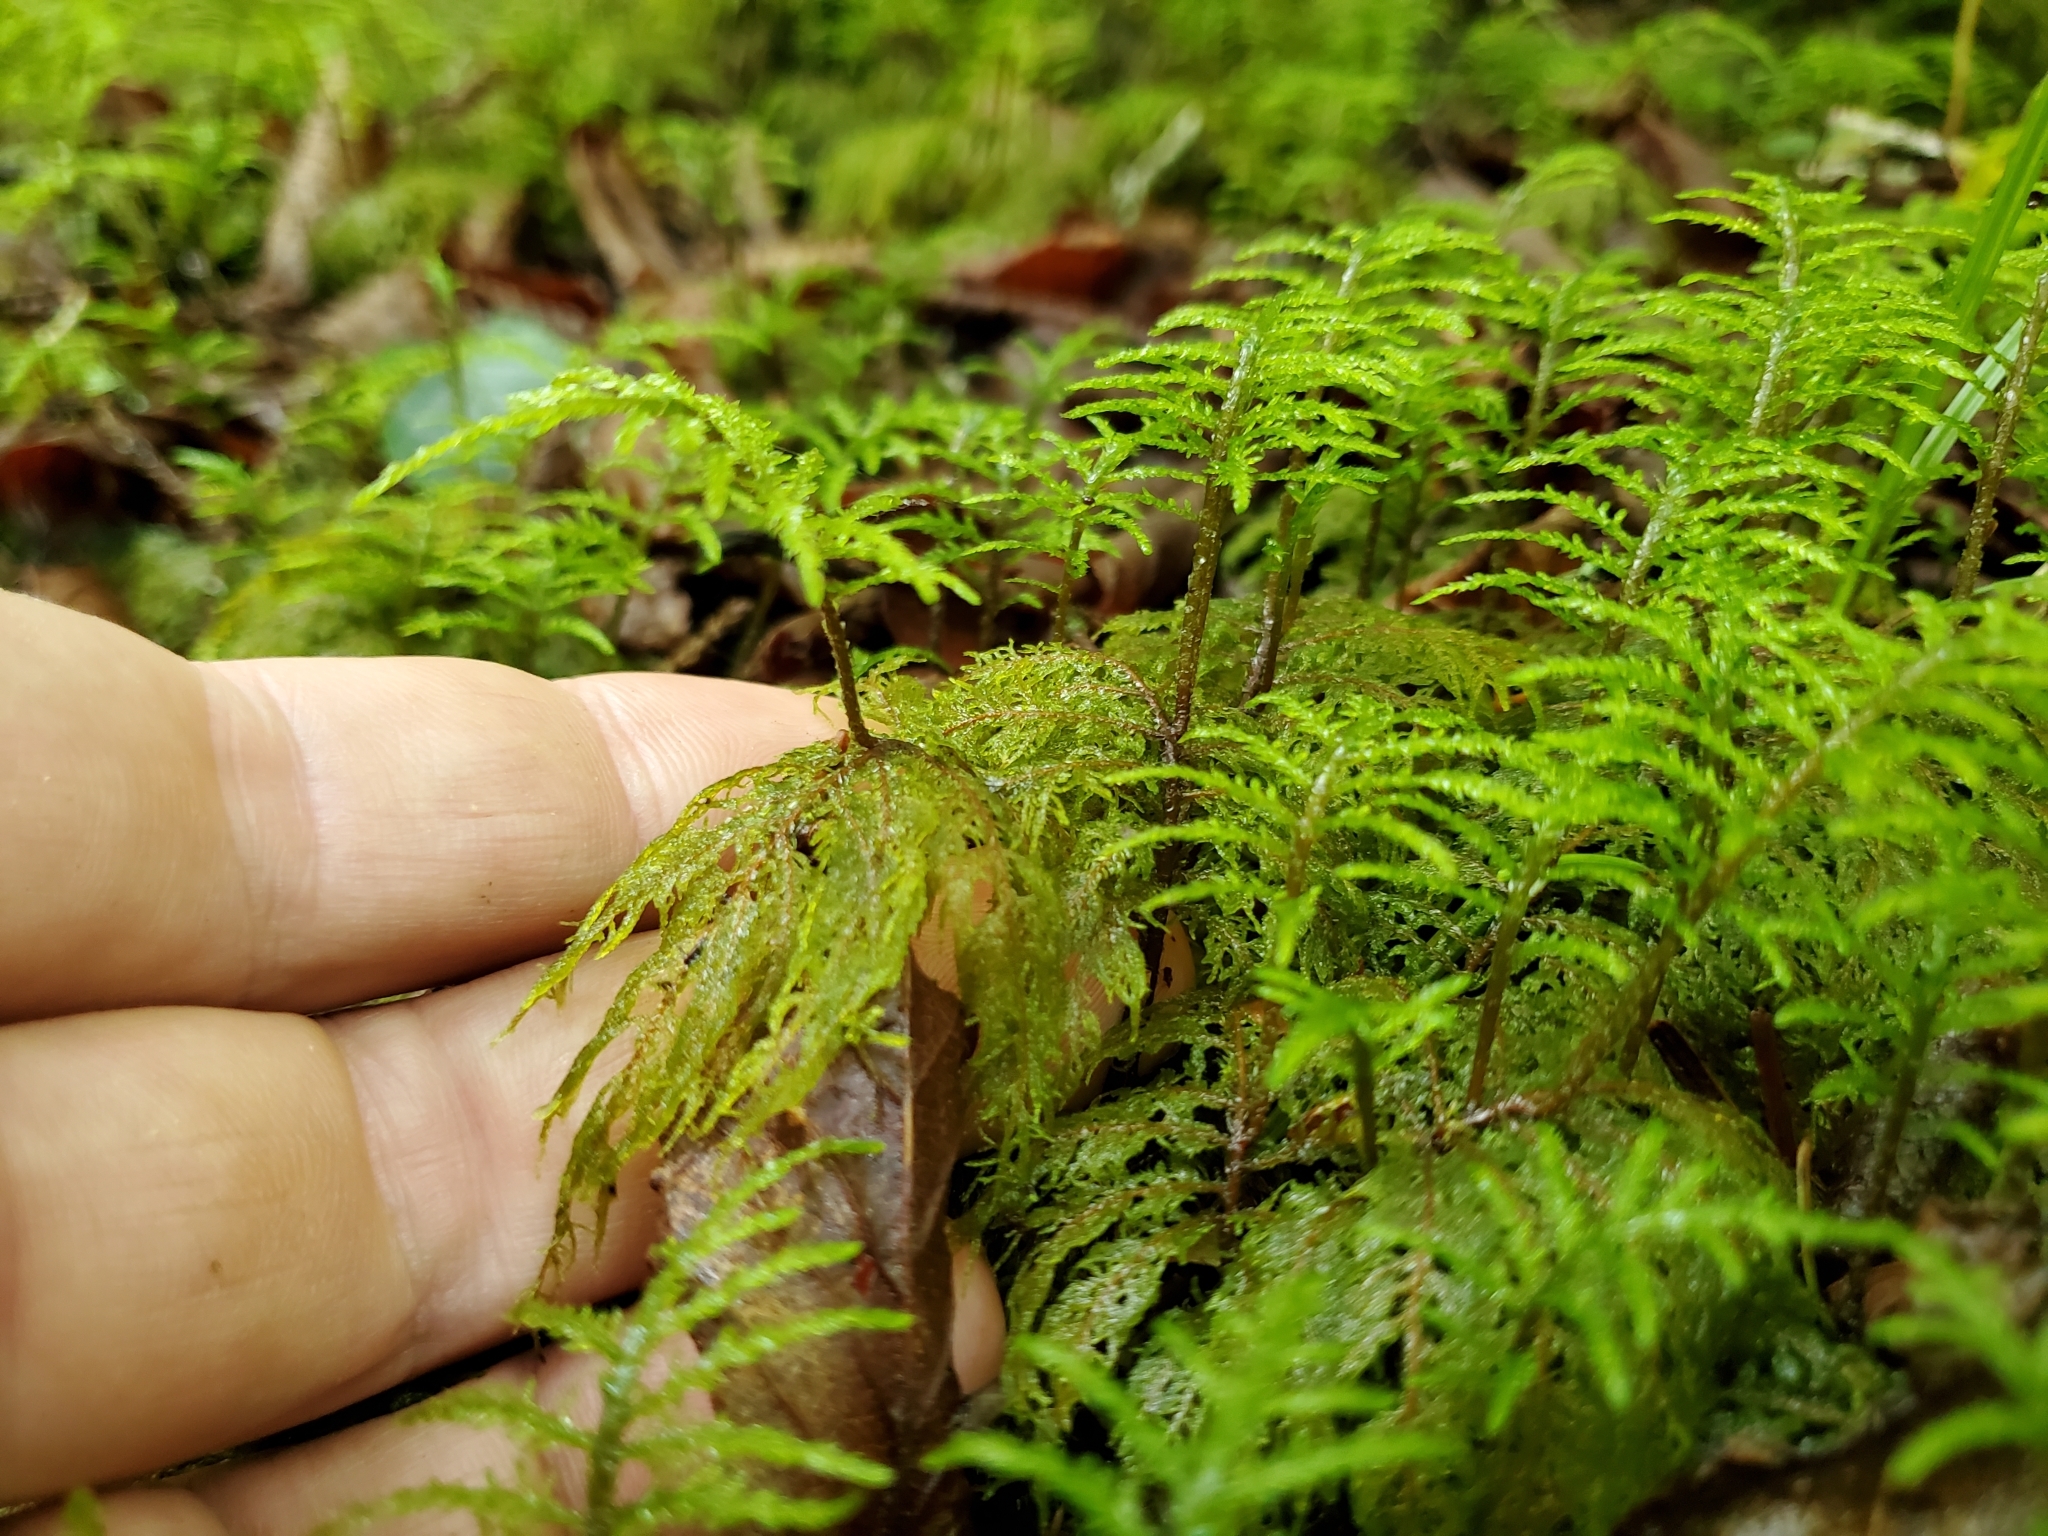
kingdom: Plantae
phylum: Bryophyta
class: Bryopsida
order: Hypnales
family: Hylocomiaceae
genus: Hylocomium
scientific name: Hylocomium splendens
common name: Stairstep moss
